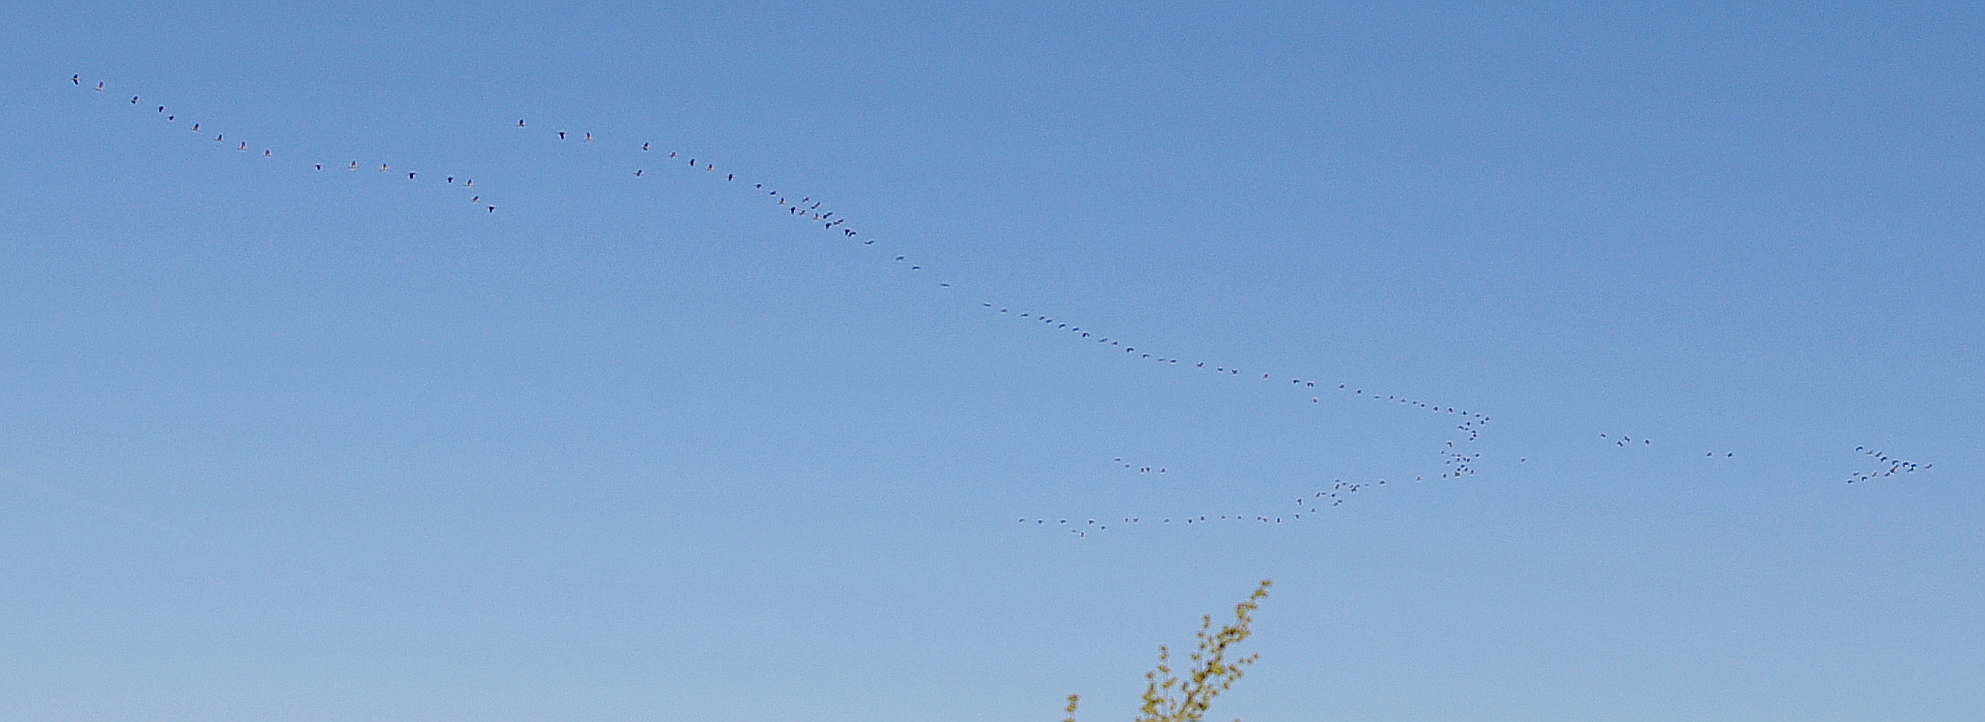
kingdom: Animalia
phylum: Chordata
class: Aves
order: Gruiformes
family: Gruidae
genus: Grus
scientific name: Grus grus
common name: Common crane
